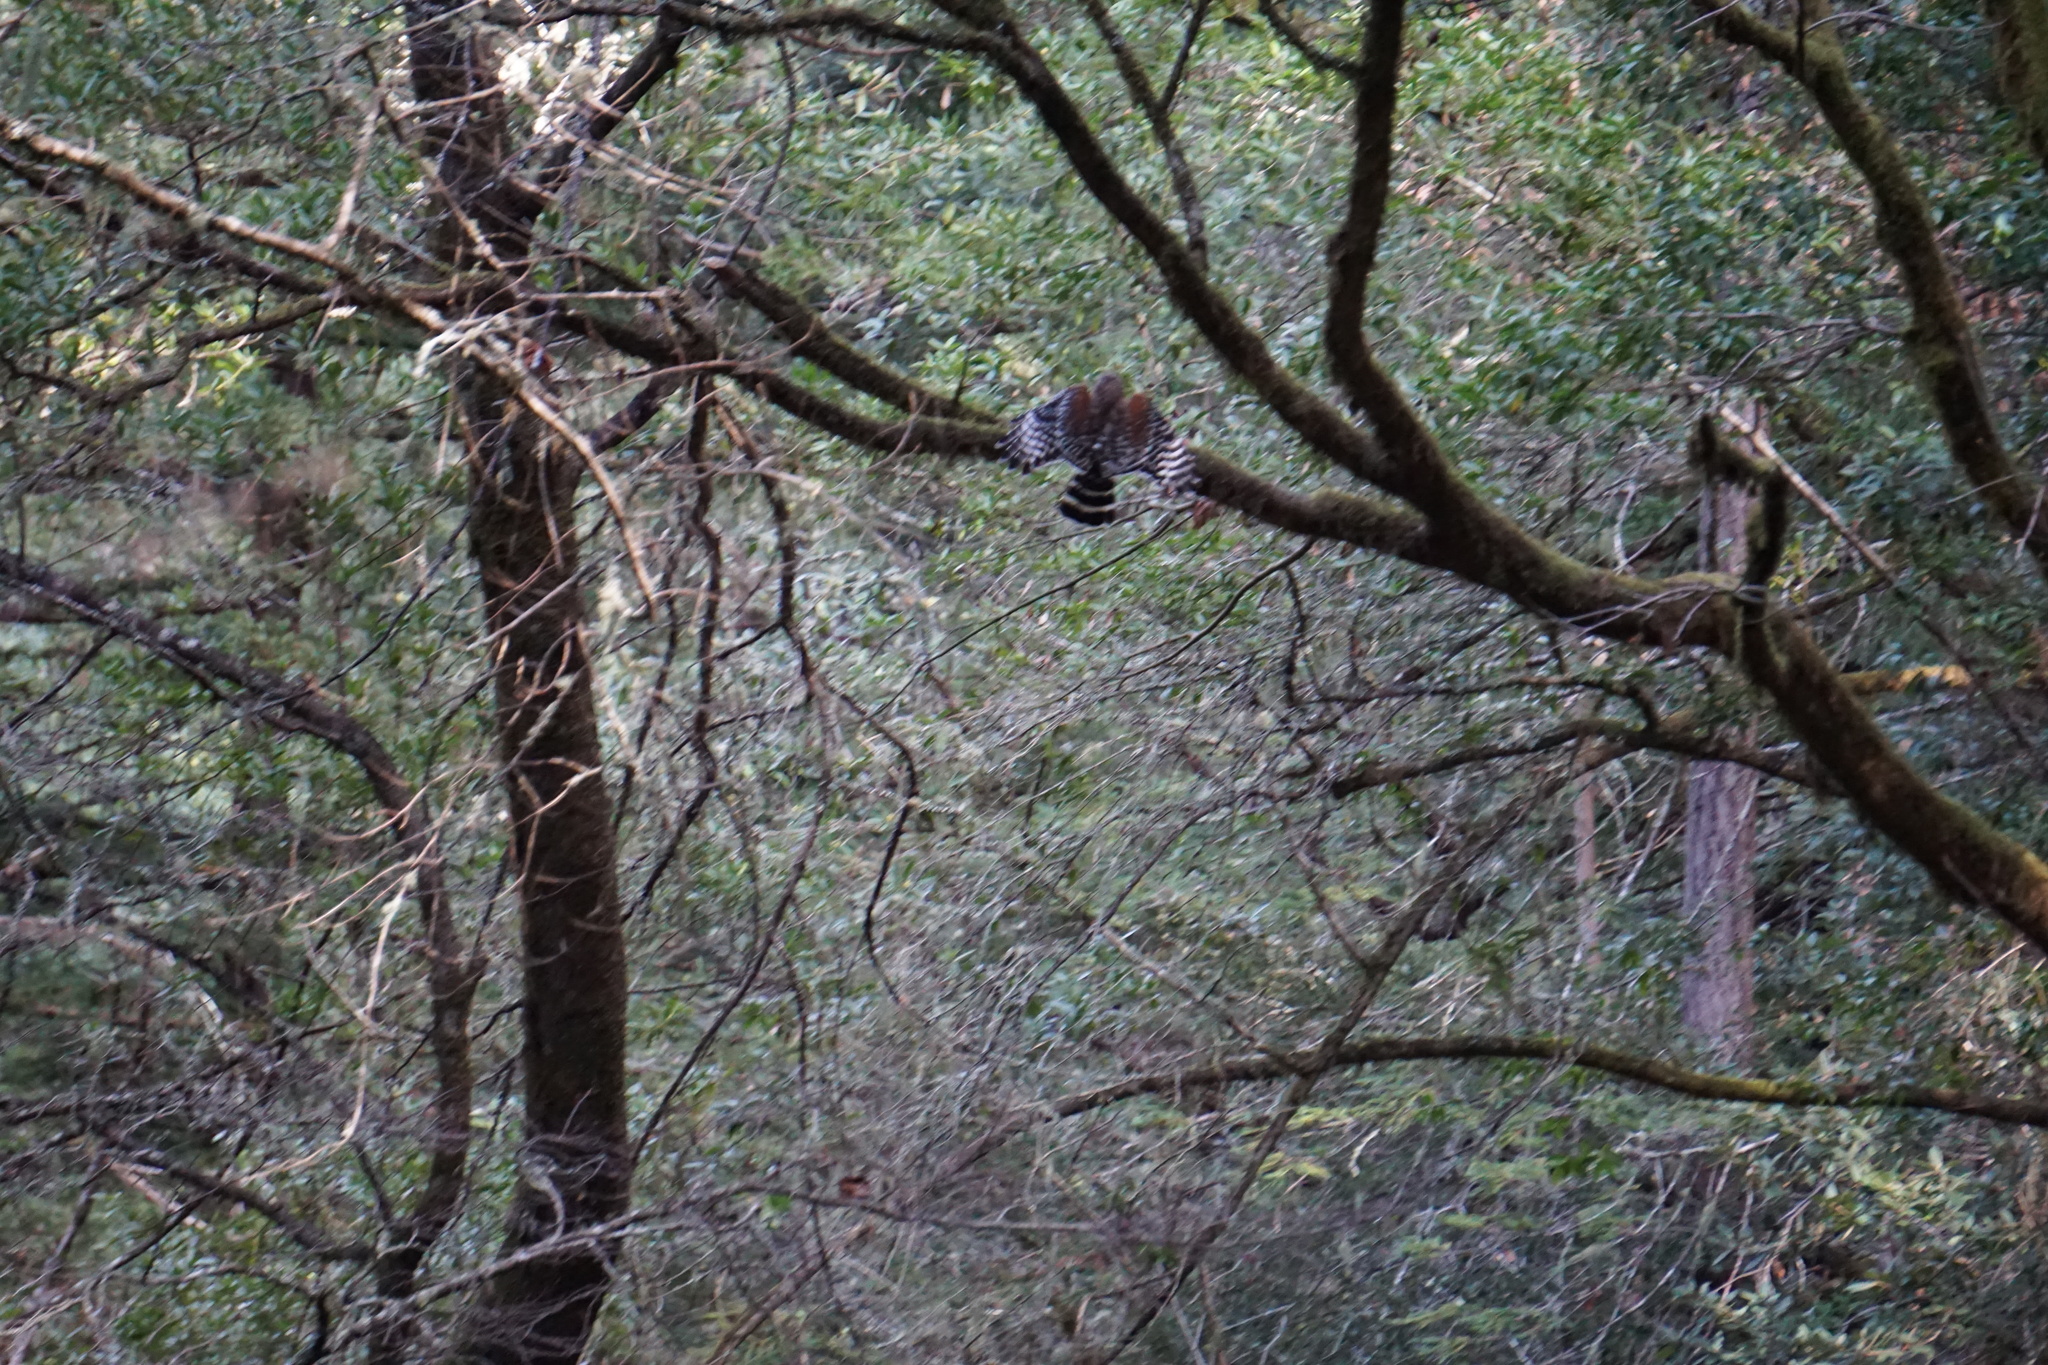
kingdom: Animalia
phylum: Chordata
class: Aves
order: Accipitriformes
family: Accipitridae
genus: Buteo
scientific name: Buteo lineatus
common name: Red-shouldered hawk
